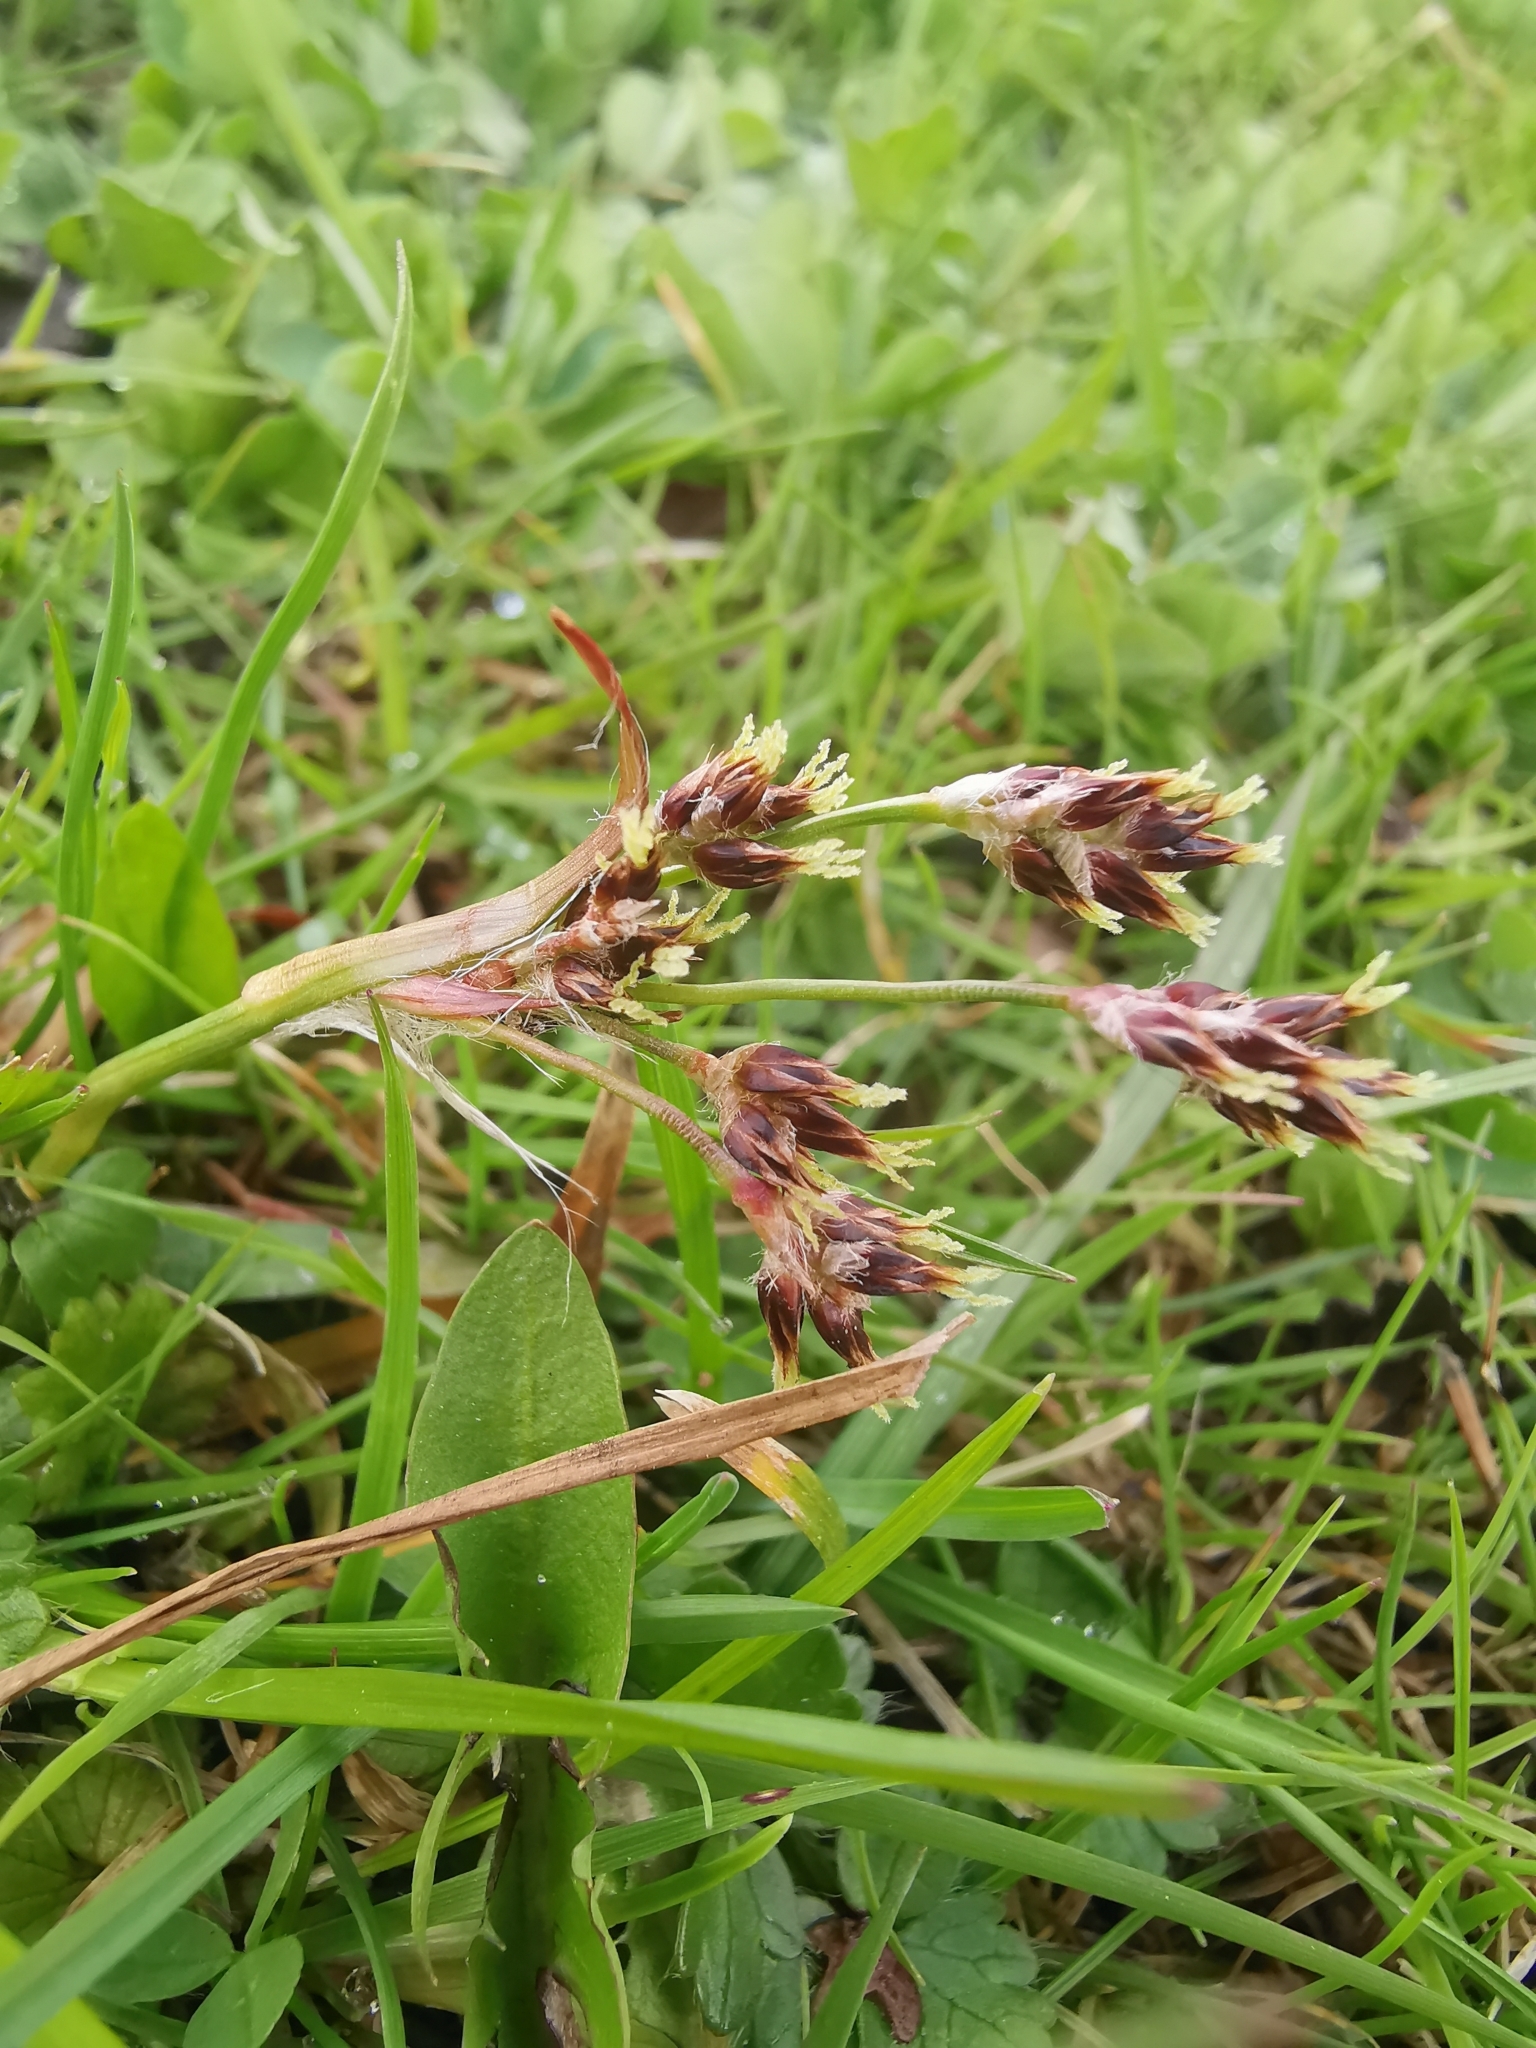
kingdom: Plantae
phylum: Tracheophyta
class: Liliopsida
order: Poales
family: Juncaceae
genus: Luzula
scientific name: Luzula campestris
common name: Field wood-rush
